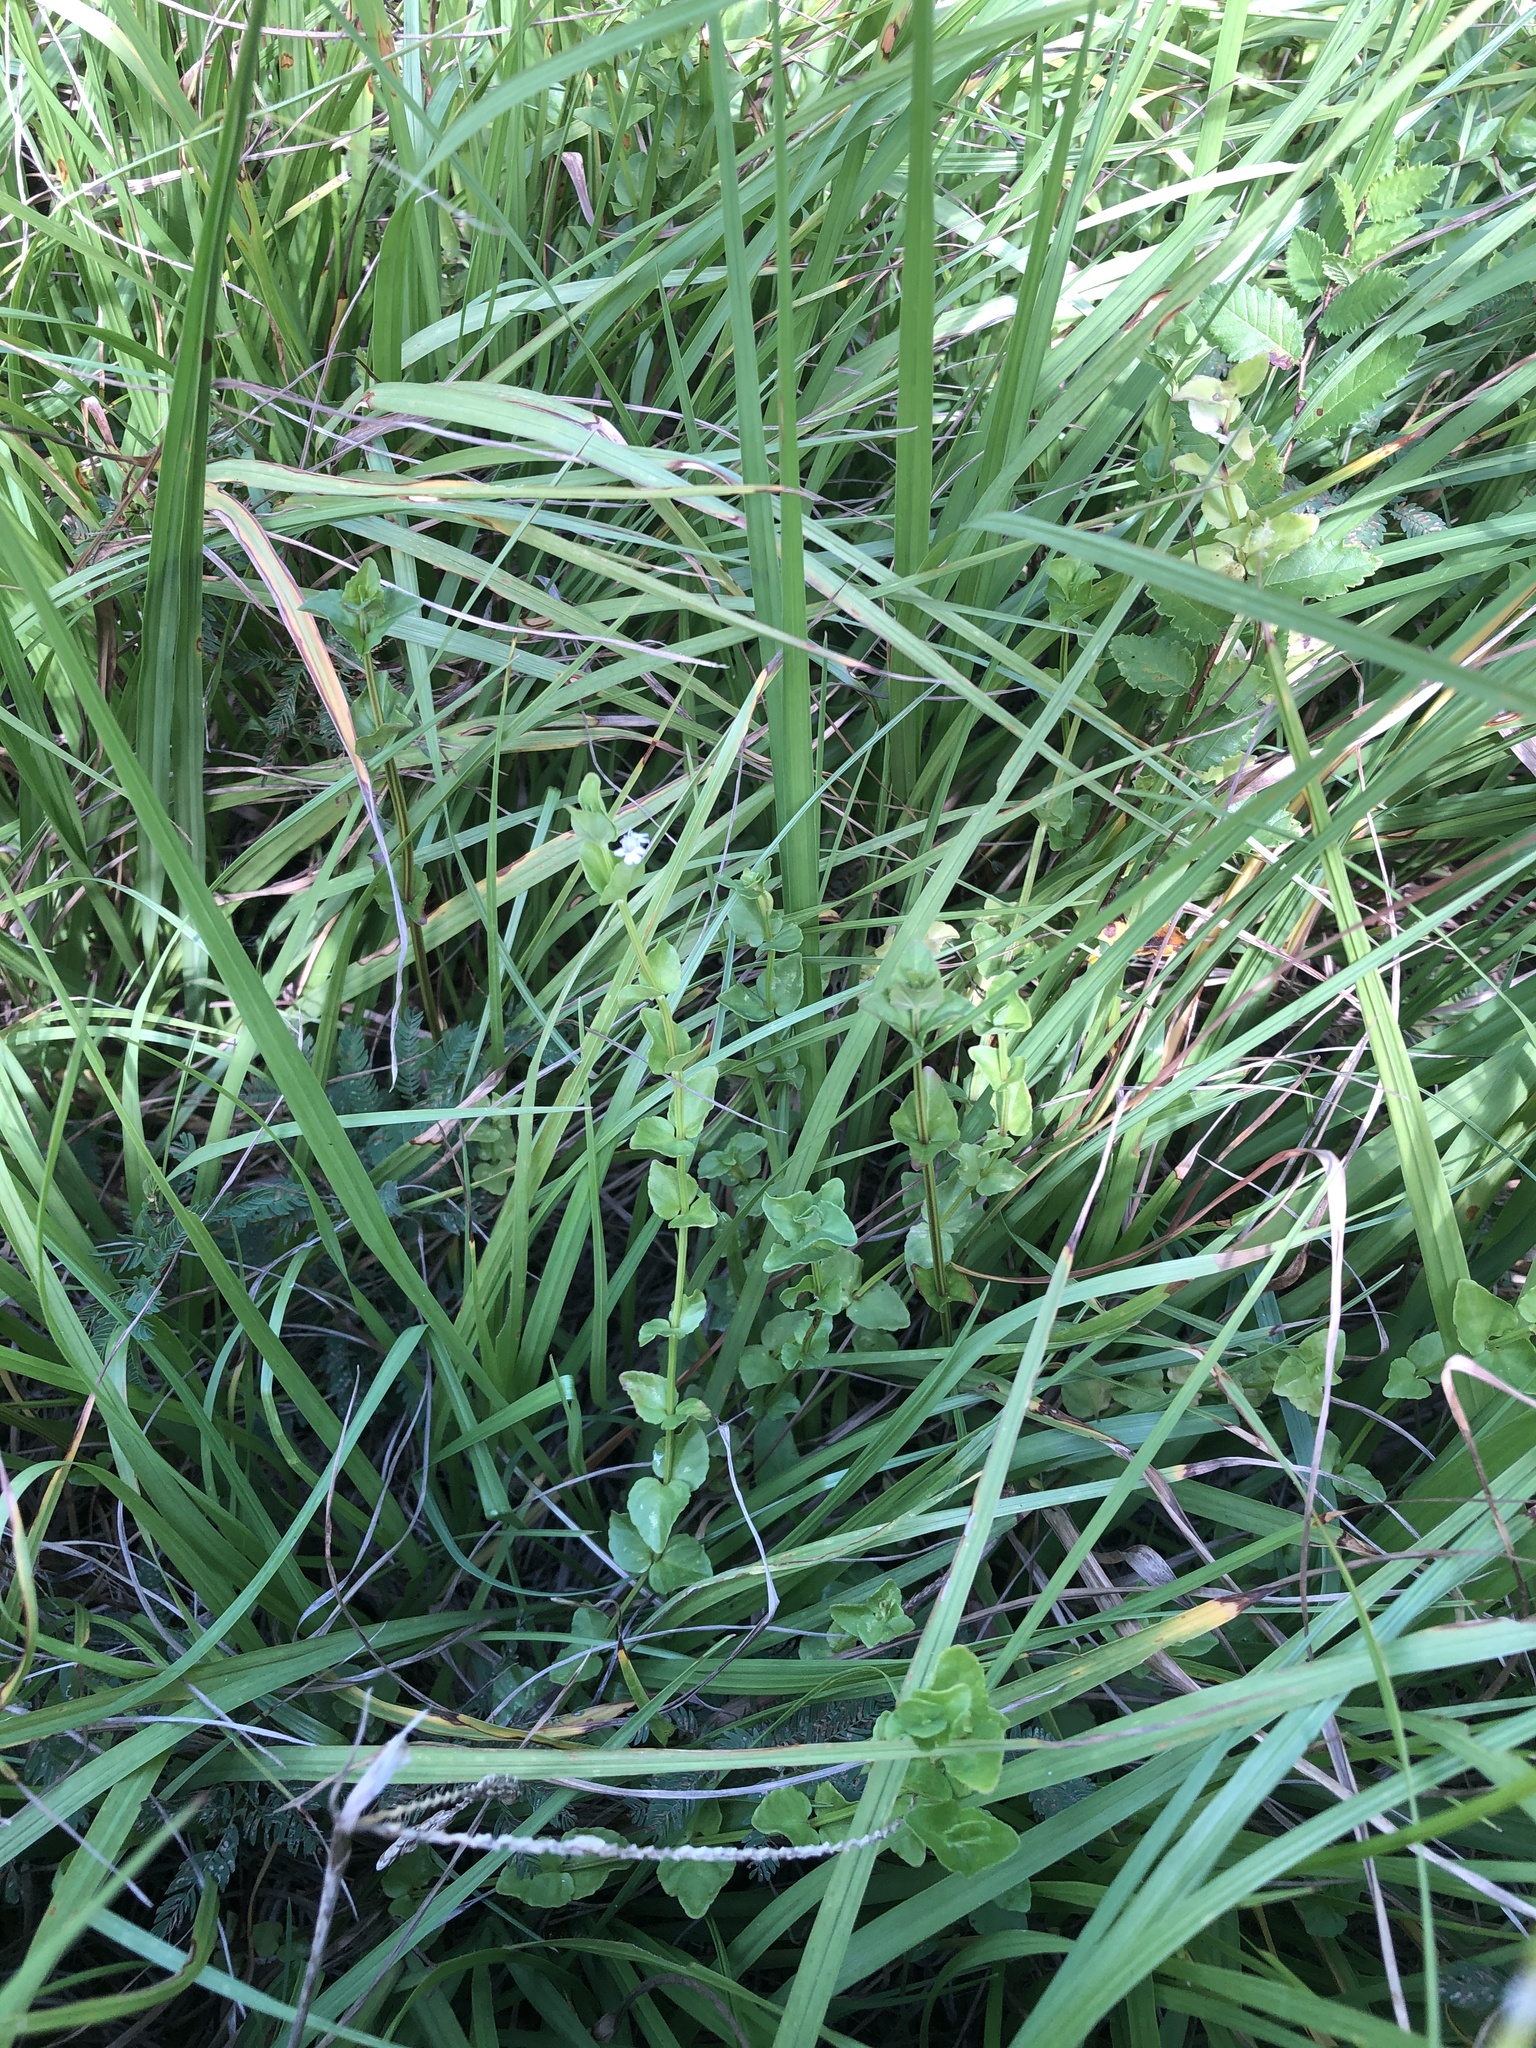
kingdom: Plantae
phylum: Tracheophyta
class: Magnoliopsida
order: Lamiales
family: Lamiaceae
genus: Clinopodium
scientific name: Clinopodium brownei
